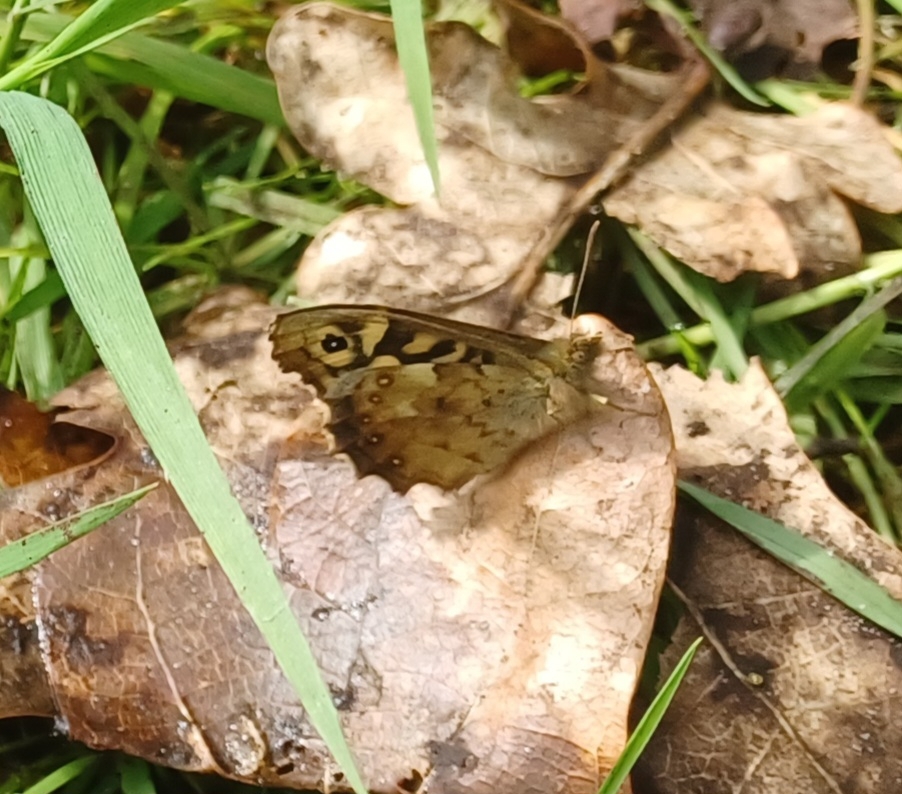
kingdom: Animalia
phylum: Arthropoda
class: Insecta
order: Lepidoptera
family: Nymphalidae
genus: Pararge
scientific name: Pararge aegeria
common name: Speckled wood
